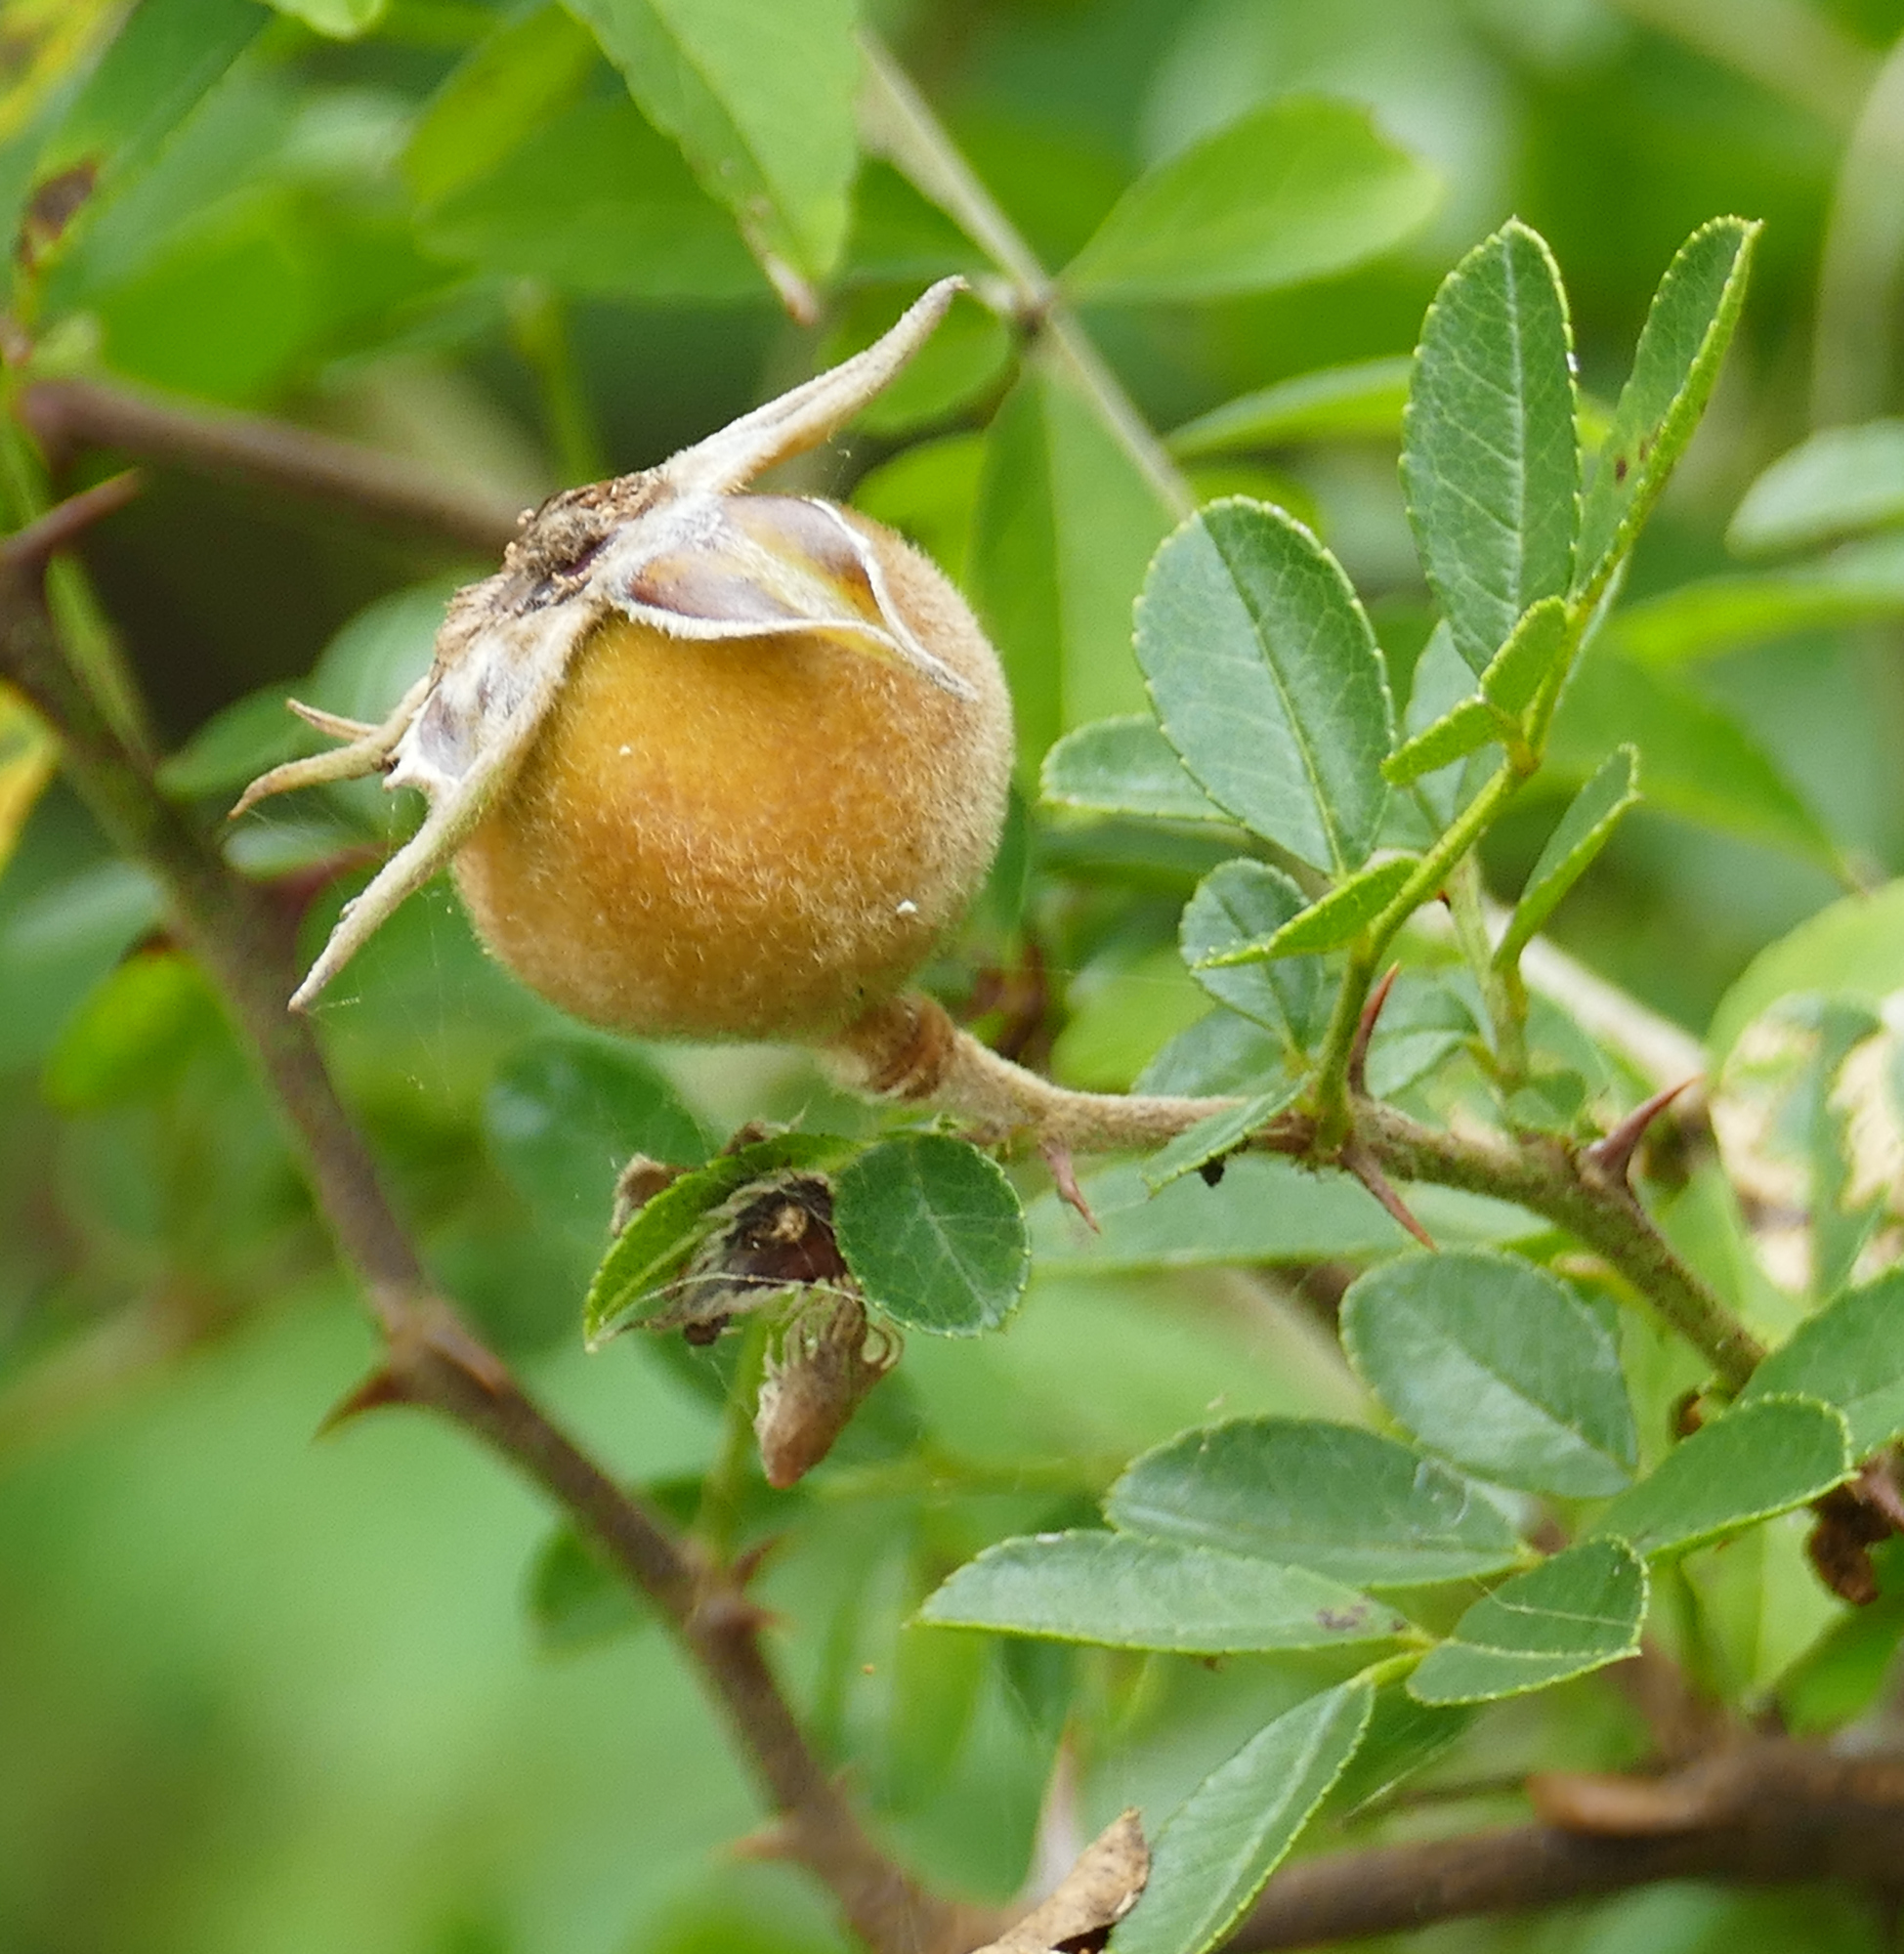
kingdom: Plantae
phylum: Tracheophyta
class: Magnoliopsida
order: Rosales
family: Rosaceae
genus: Rosa
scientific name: Rosa bracteata
